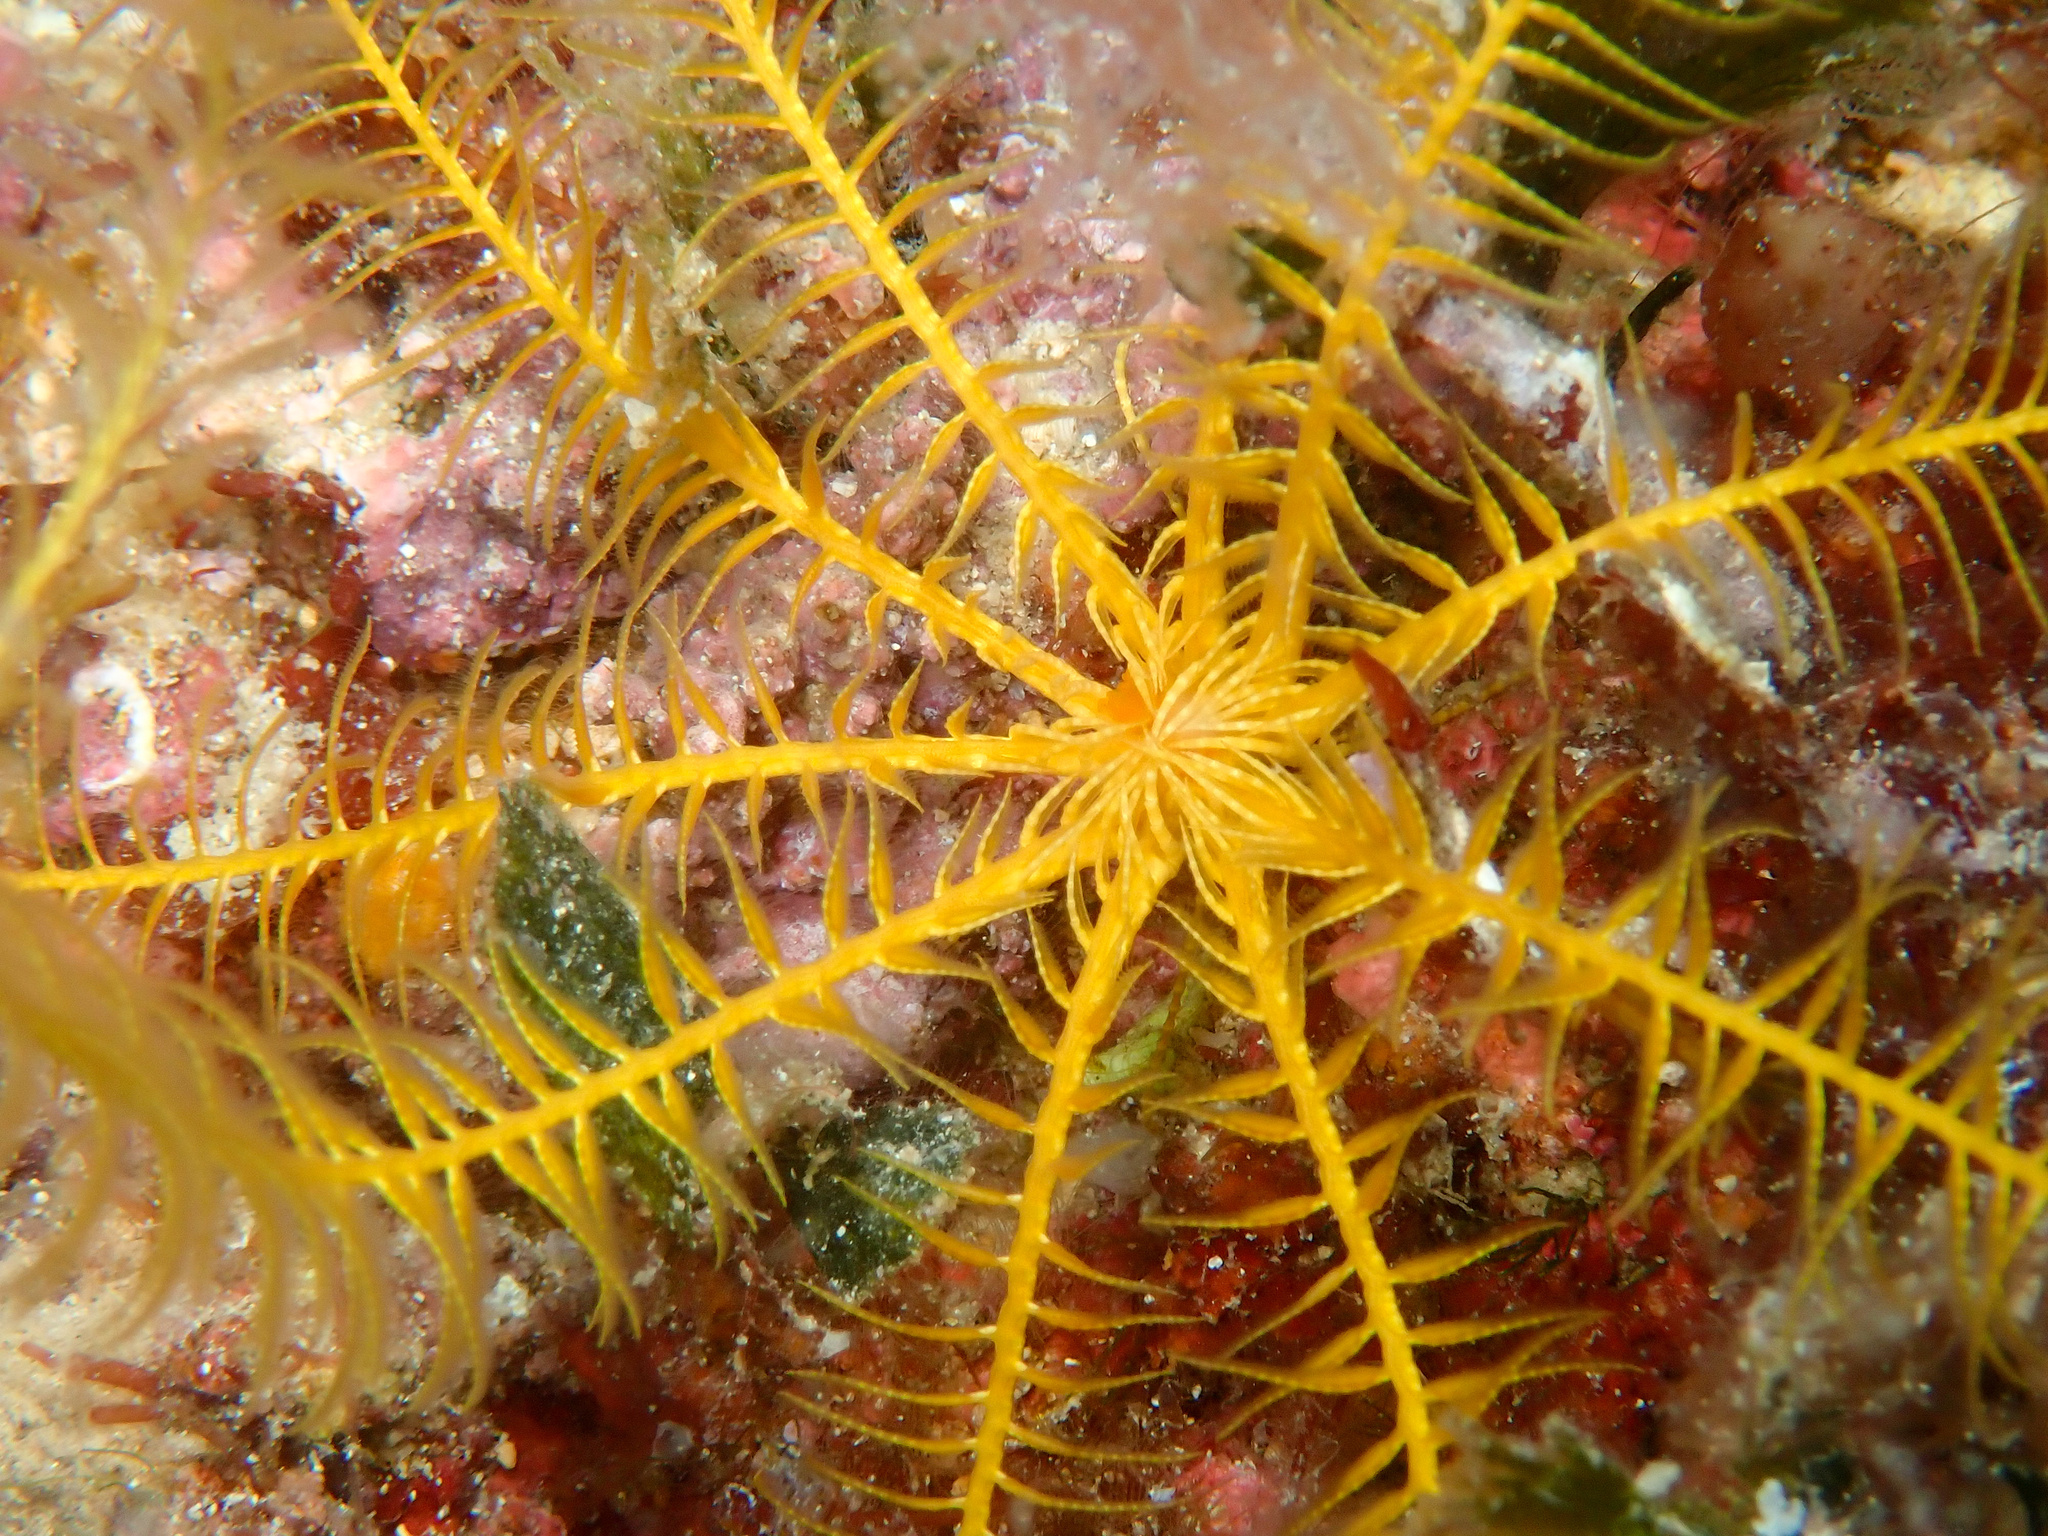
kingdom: Animalia
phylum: Echinodermata
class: Crinoidea
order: Comatulida
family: Antedonidae
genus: Antedon
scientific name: Antedon mediterranea
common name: Feather star
